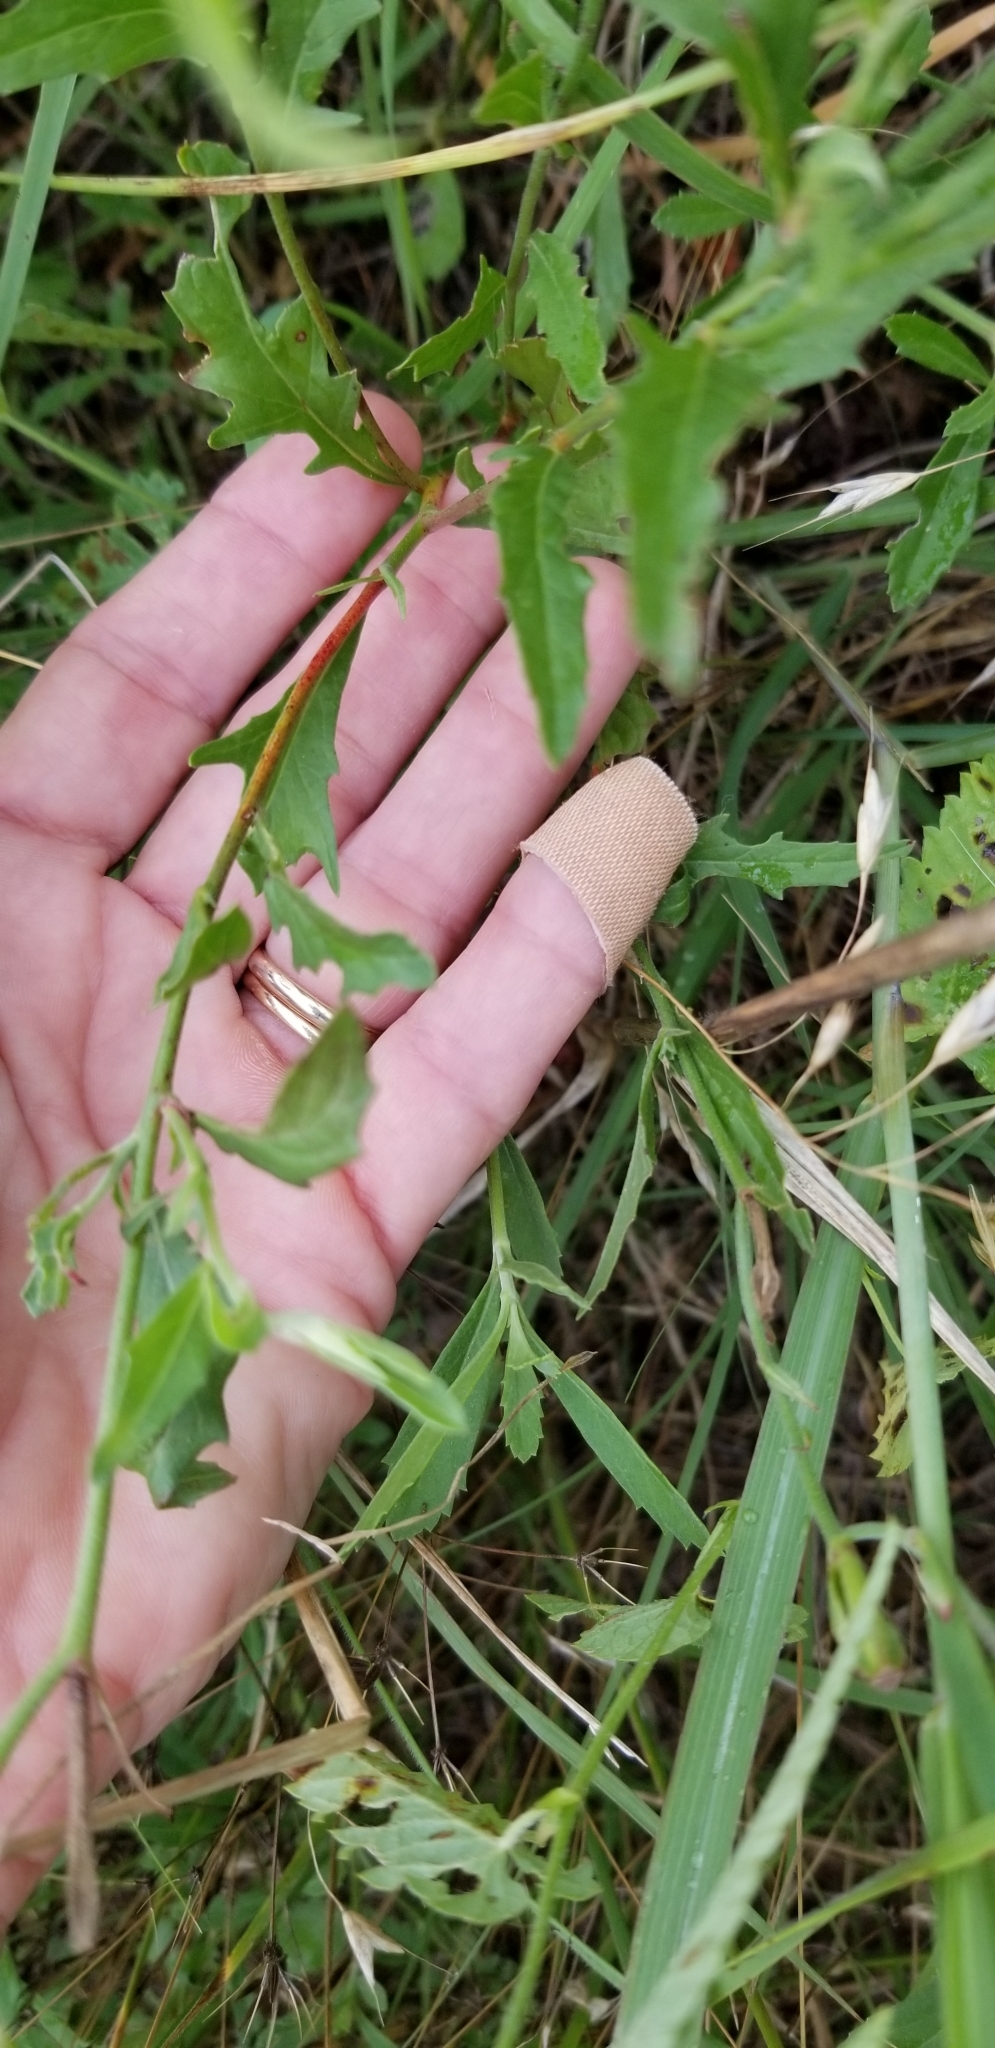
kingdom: Plantae
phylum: Tracheophyta
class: Magnoliopsida
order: Myrtales
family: Onagraceae
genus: Oenothera
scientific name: Oenothera speciosa
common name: White evening-primrose
